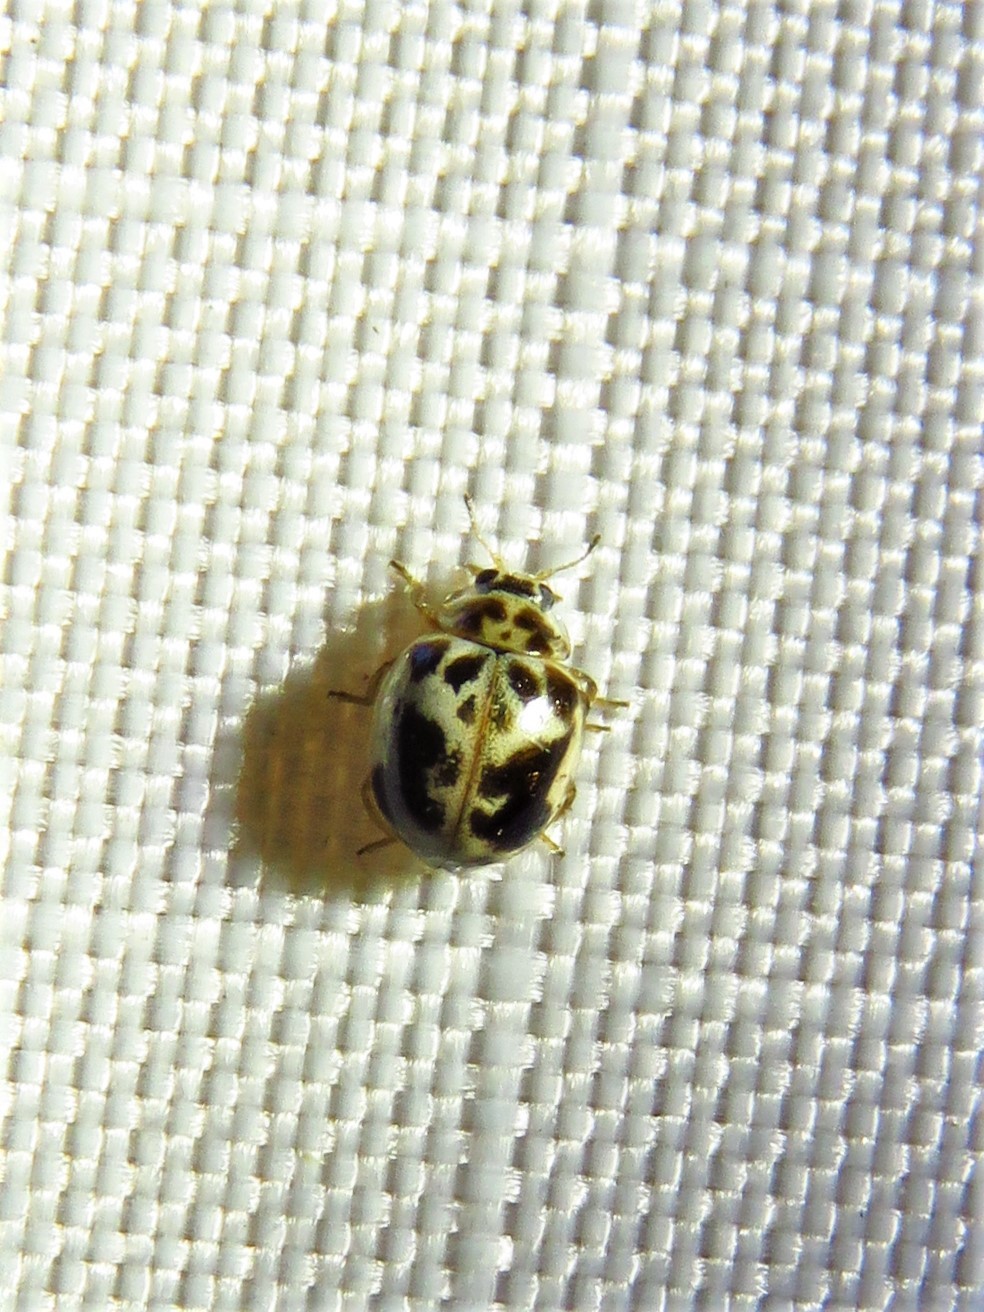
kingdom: Animalia
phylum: Arthropoda
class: Insecta
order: Coleoptera
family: Coccinellidae
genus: Psyllobora
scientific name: Psyllobora renifer
